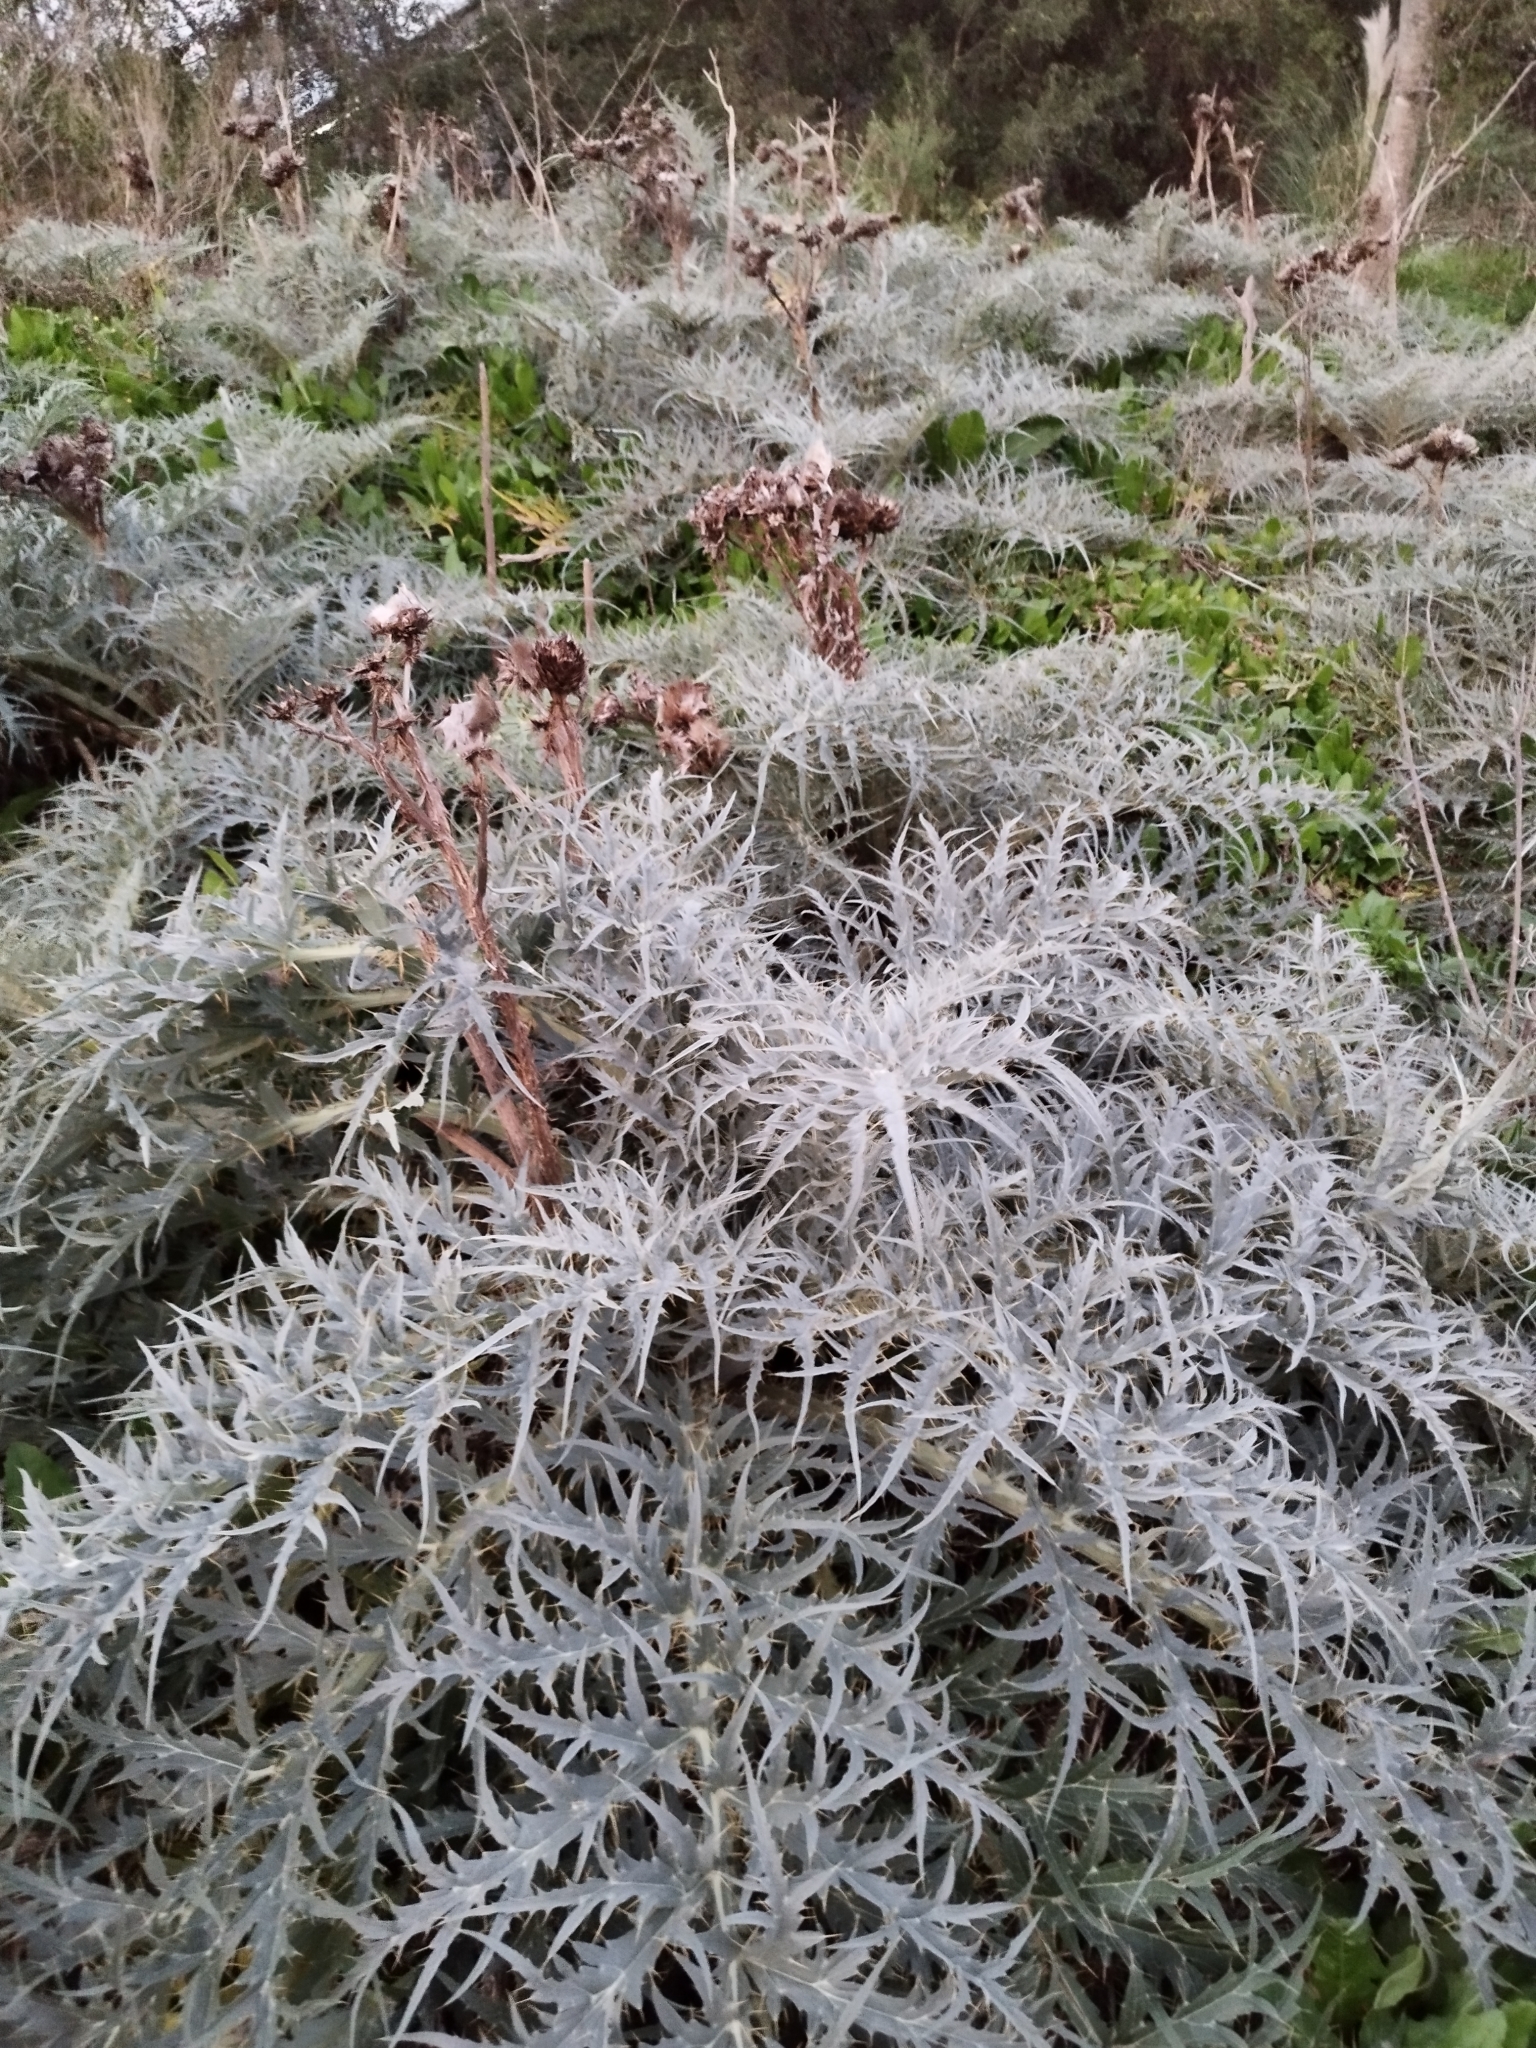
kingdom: Plantae
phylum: Tracheophyta
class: Magnoliopsida
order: Asterales
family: Asteraceae
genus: Cynara
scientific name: Cynara cardunculus
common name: Globe artichoke
